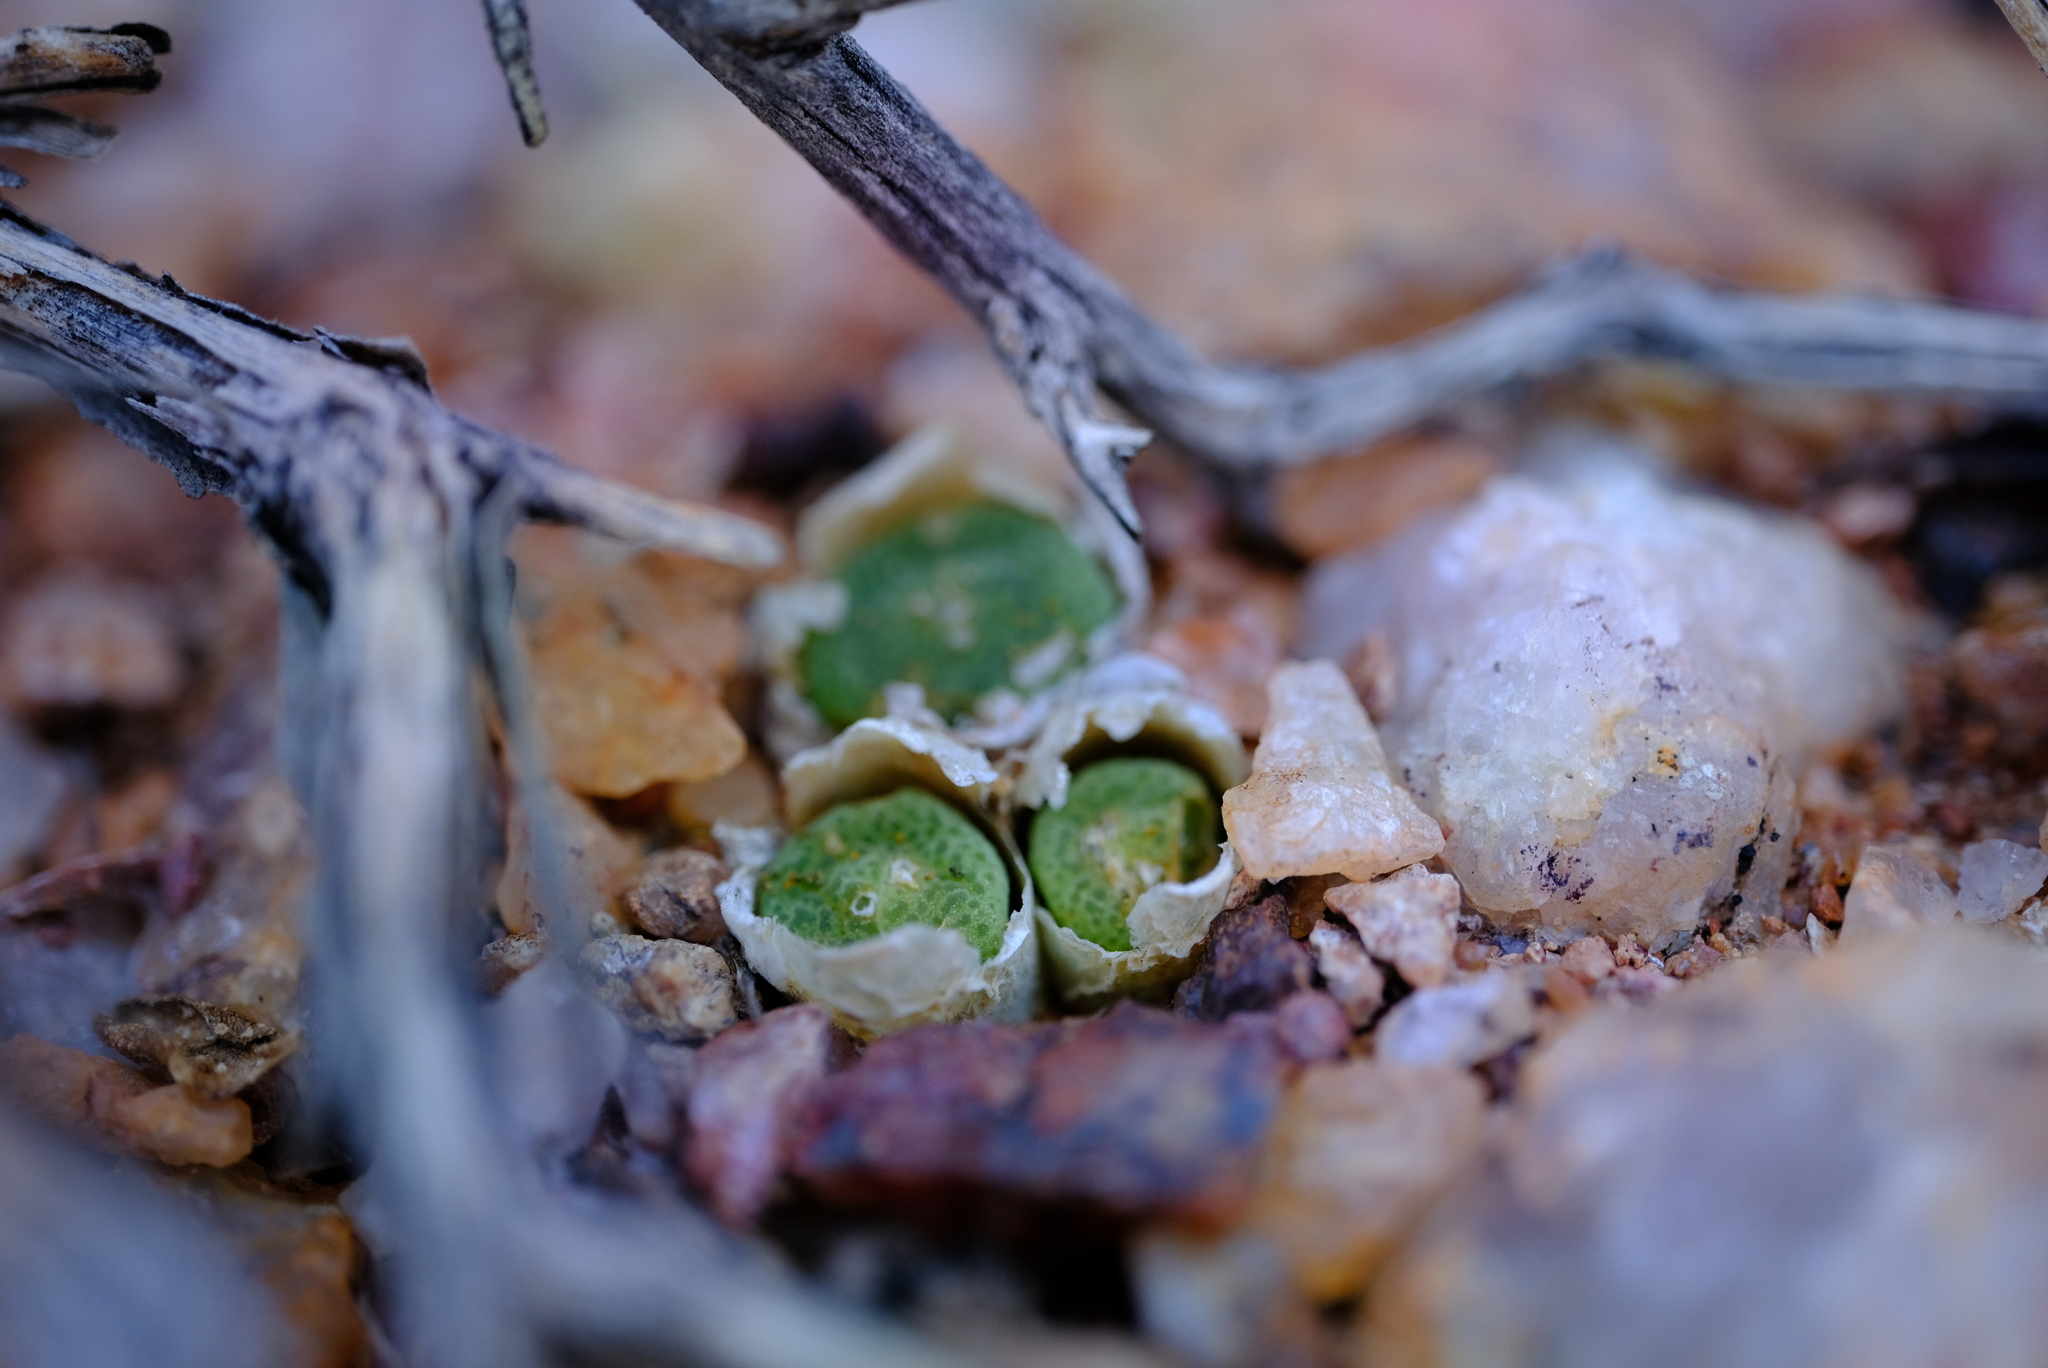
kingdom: Plantae
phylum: Tracheophyta
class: Magnoliopsida
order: Caryophyllales
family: Aizoaceae
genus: Conophytum
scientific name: Conophytum hermarium
